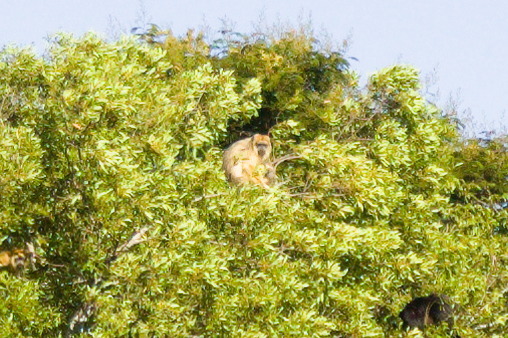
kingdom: Animalia
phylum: Chordata
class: Mammalia
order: Primates
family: Atelidae
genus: Alouatta
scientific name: Alouatta caraya
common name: Black howler
